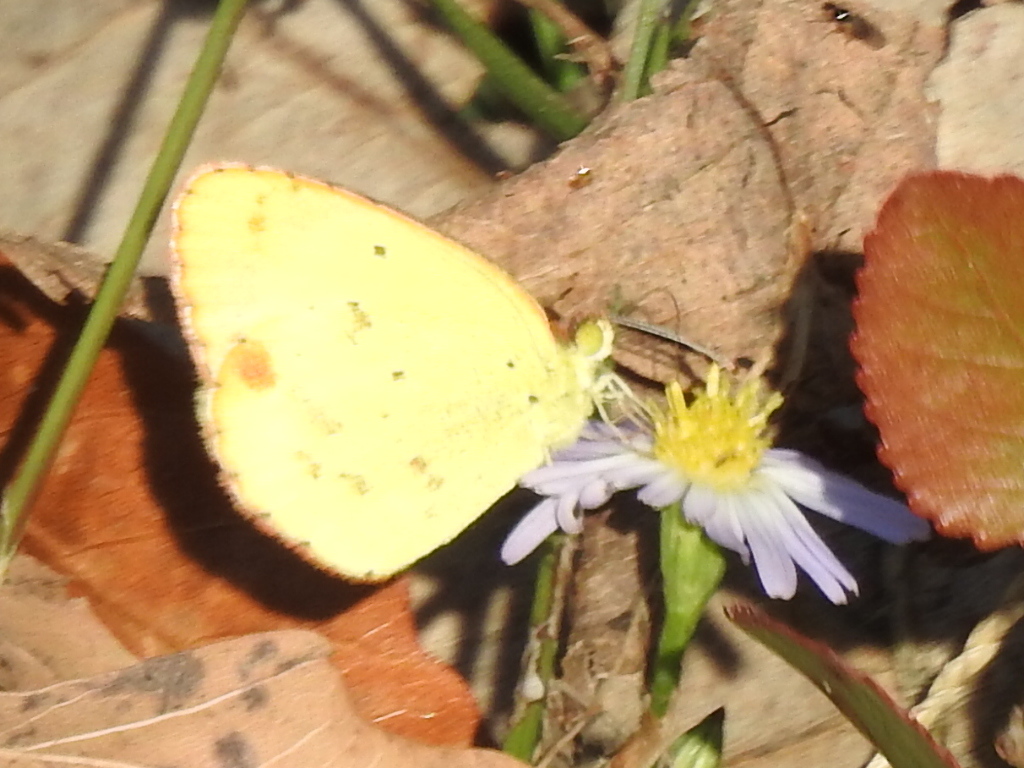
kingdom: Animalia
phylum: Arthropoda
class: Insecta
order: Lepidoptera
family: Pieridae
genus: Pyrisitia
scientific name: Pyrisitia lisa
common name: Little yellow
